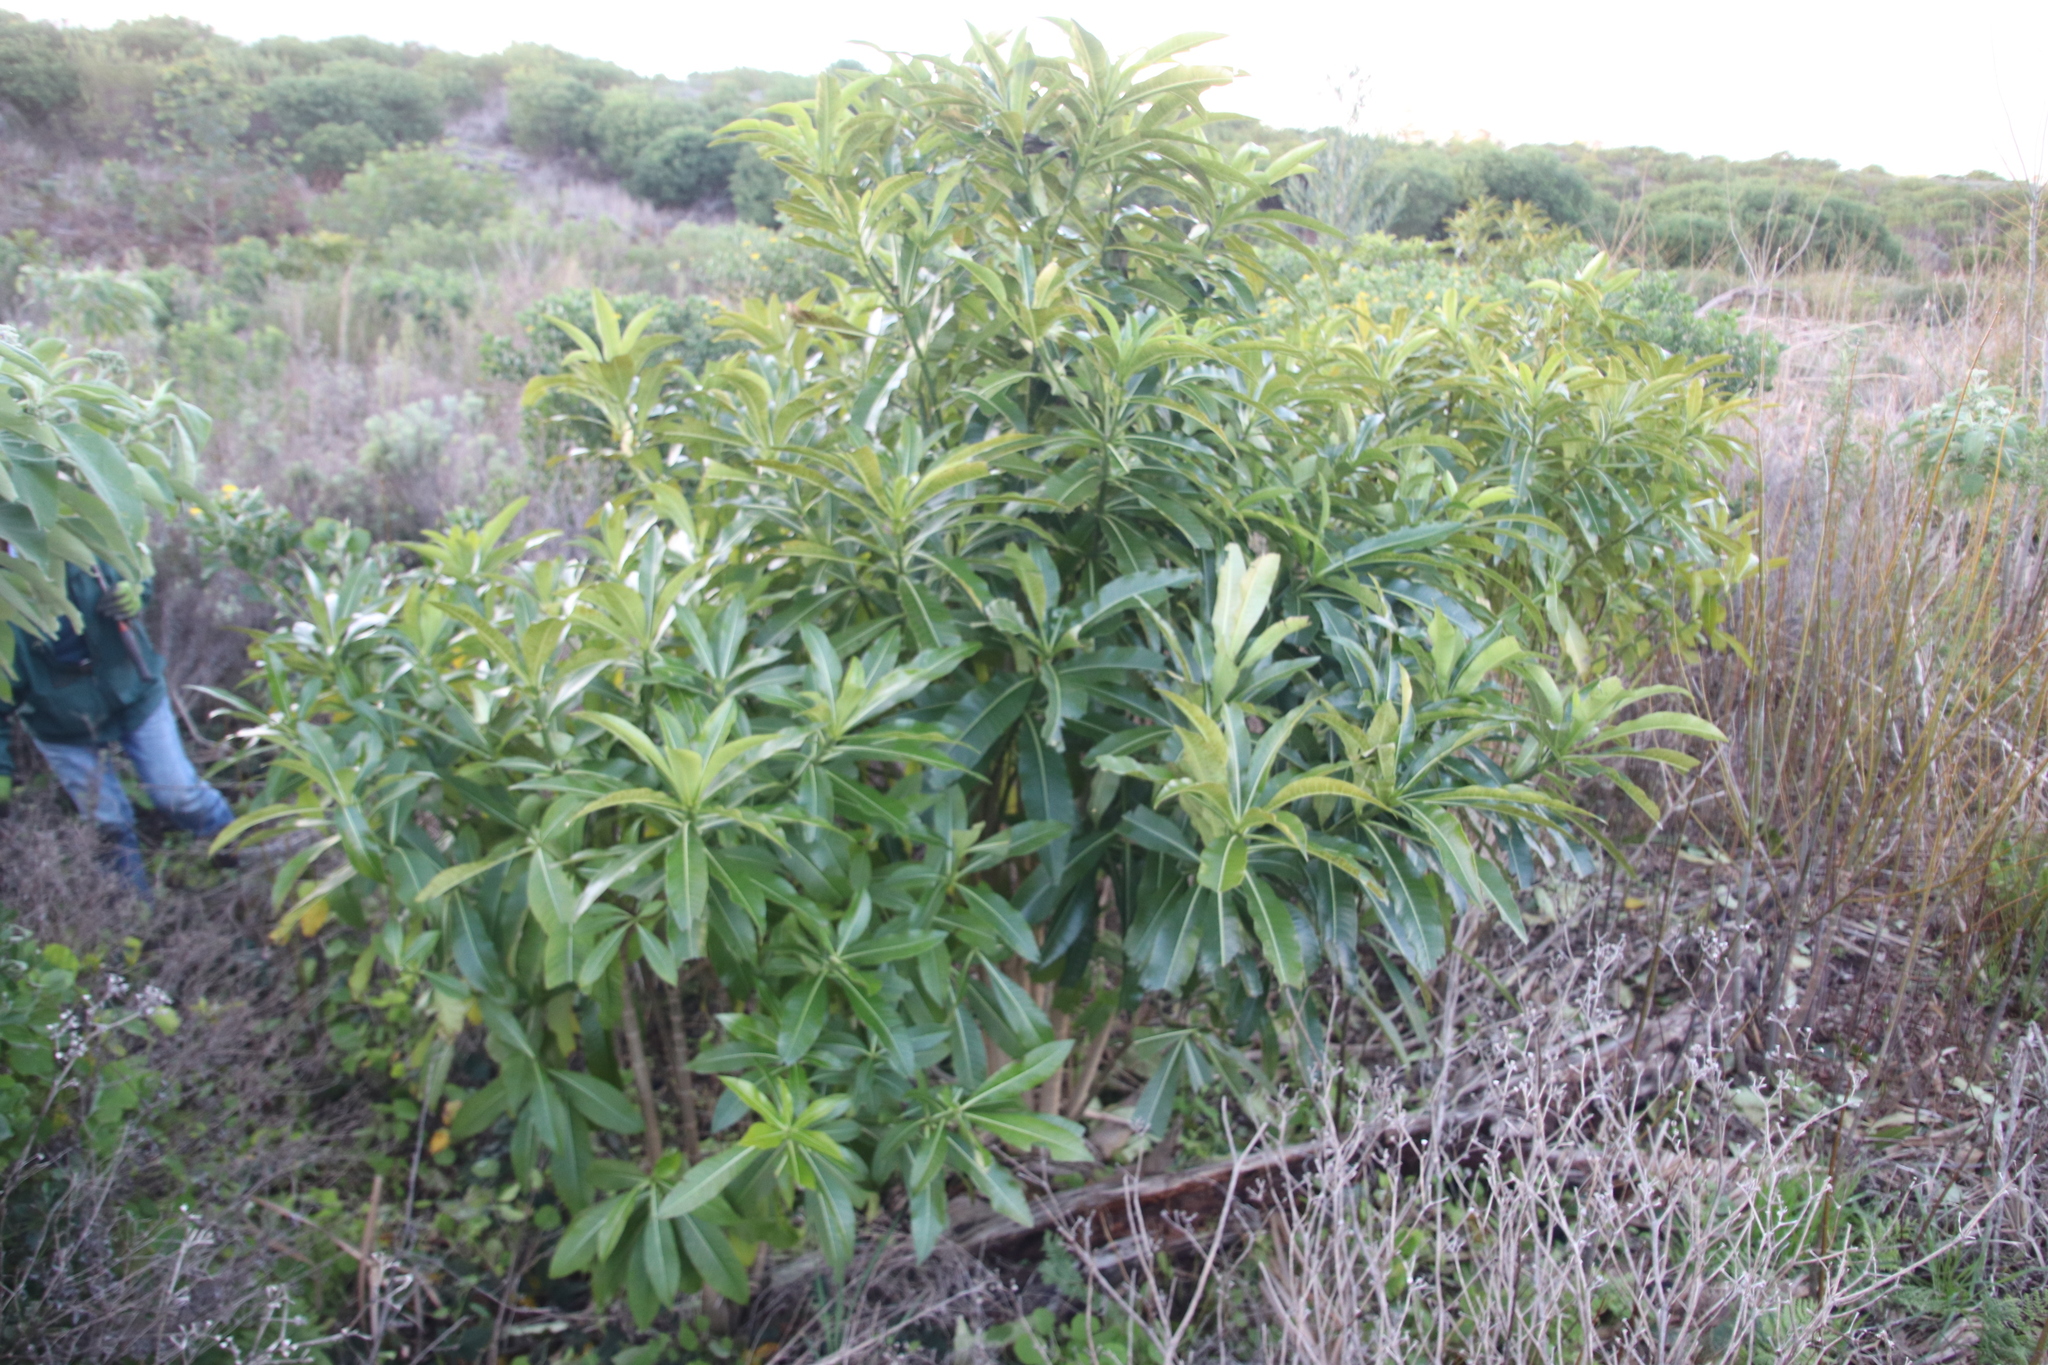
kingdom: Plantae
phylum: Tracheophyta
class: Magnoliopsida
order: Gentianales
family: Apocynaceae
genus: Rauvolfia
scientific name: Rauvolfia caffra
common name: Quininetree
